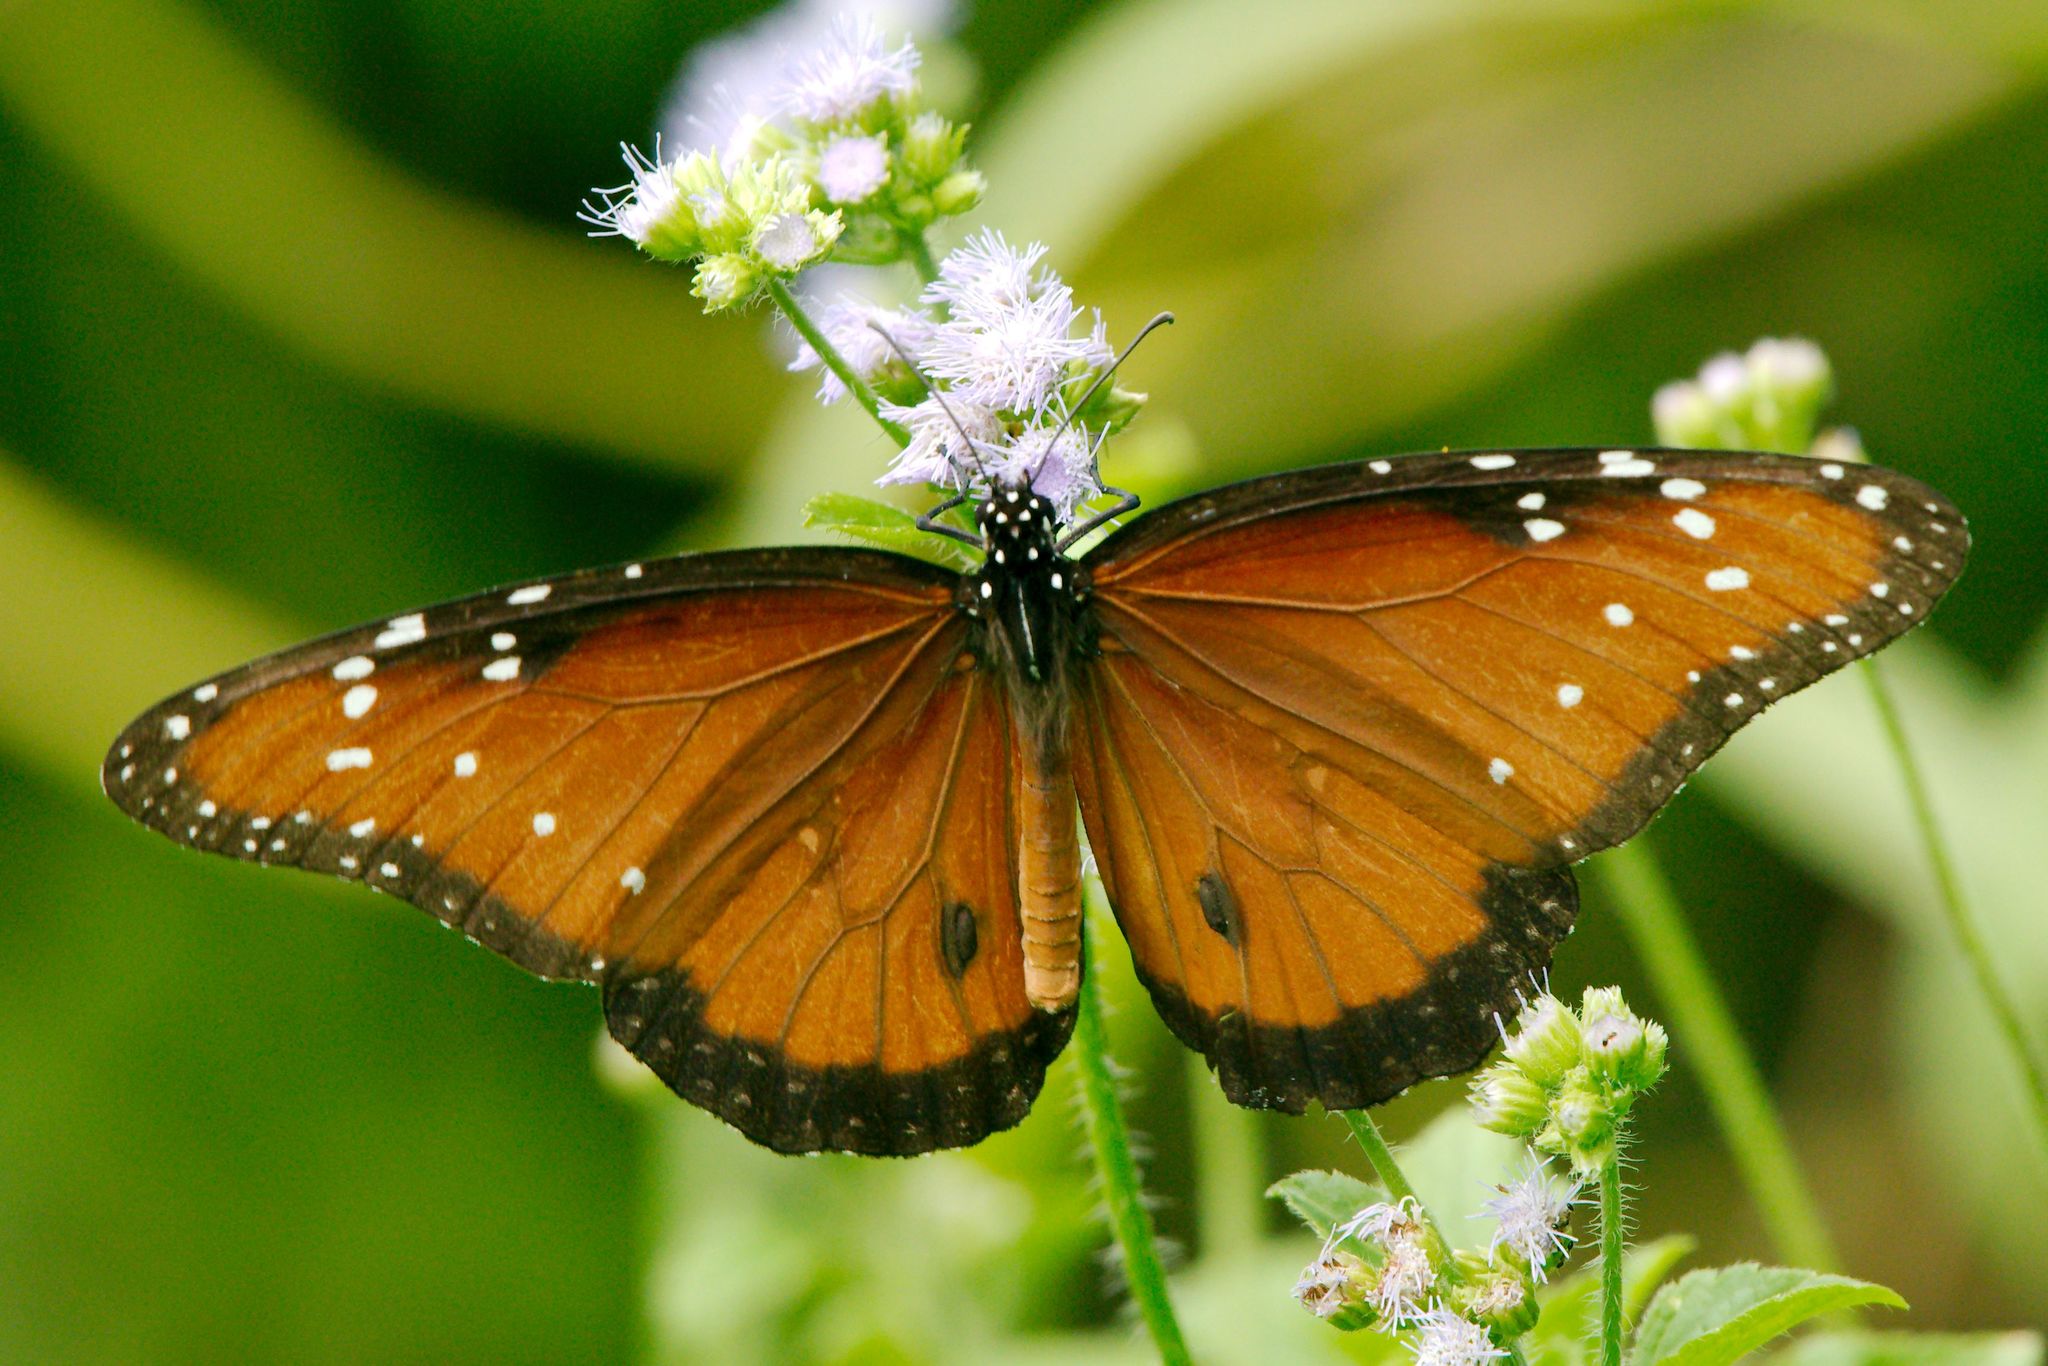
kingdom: Animalia
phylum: Arthropoda
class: Insecta
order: Lepidoptera
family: Nymphalidae
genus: Danaus
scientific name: Danaus gilippus
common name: Queen
